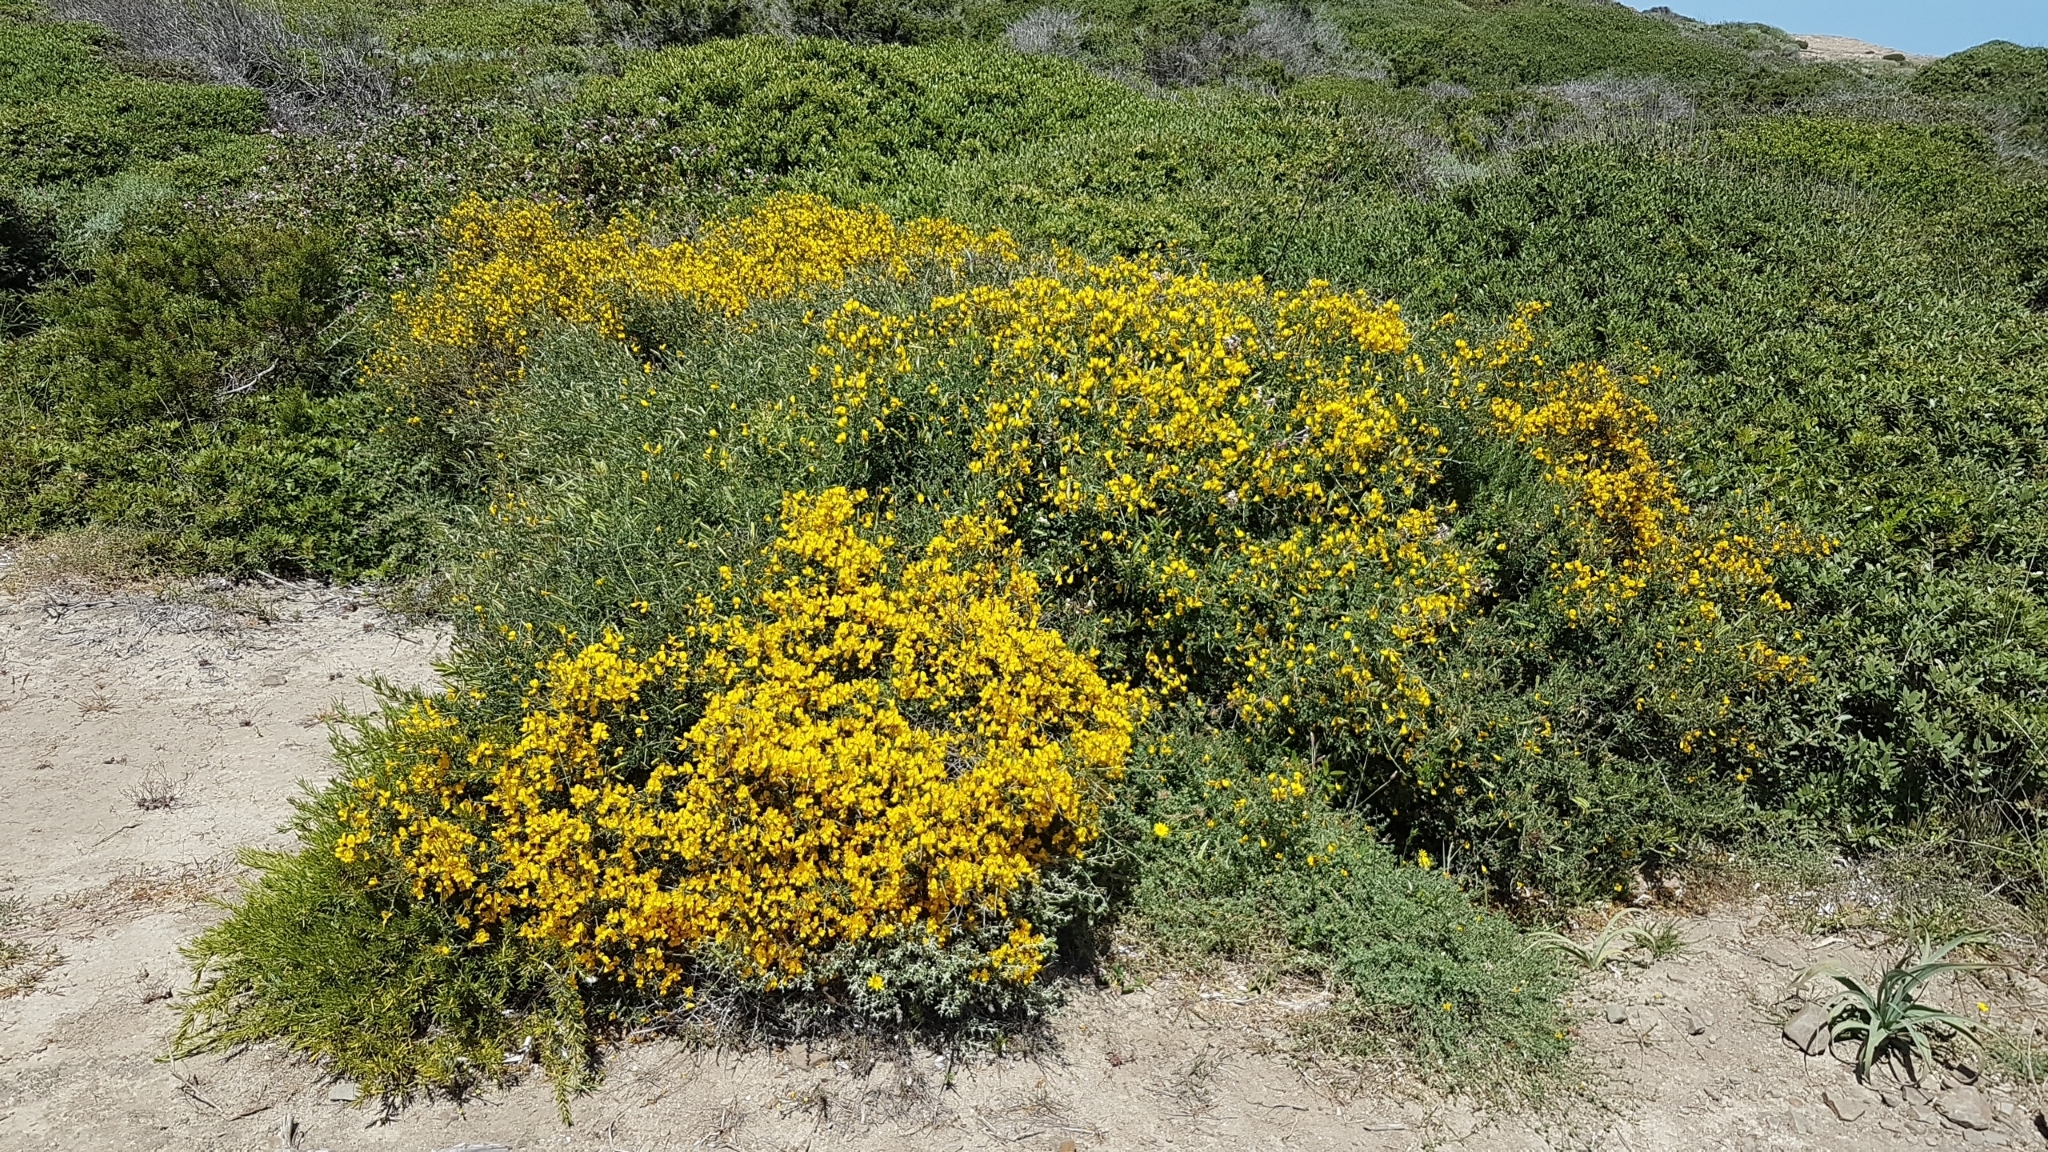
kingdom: Plantae
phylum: Tracheophyta
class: Magnoliopsida
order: Fabales
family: Fabaceae
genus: Calicotome
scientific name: Calicotome spinosa
